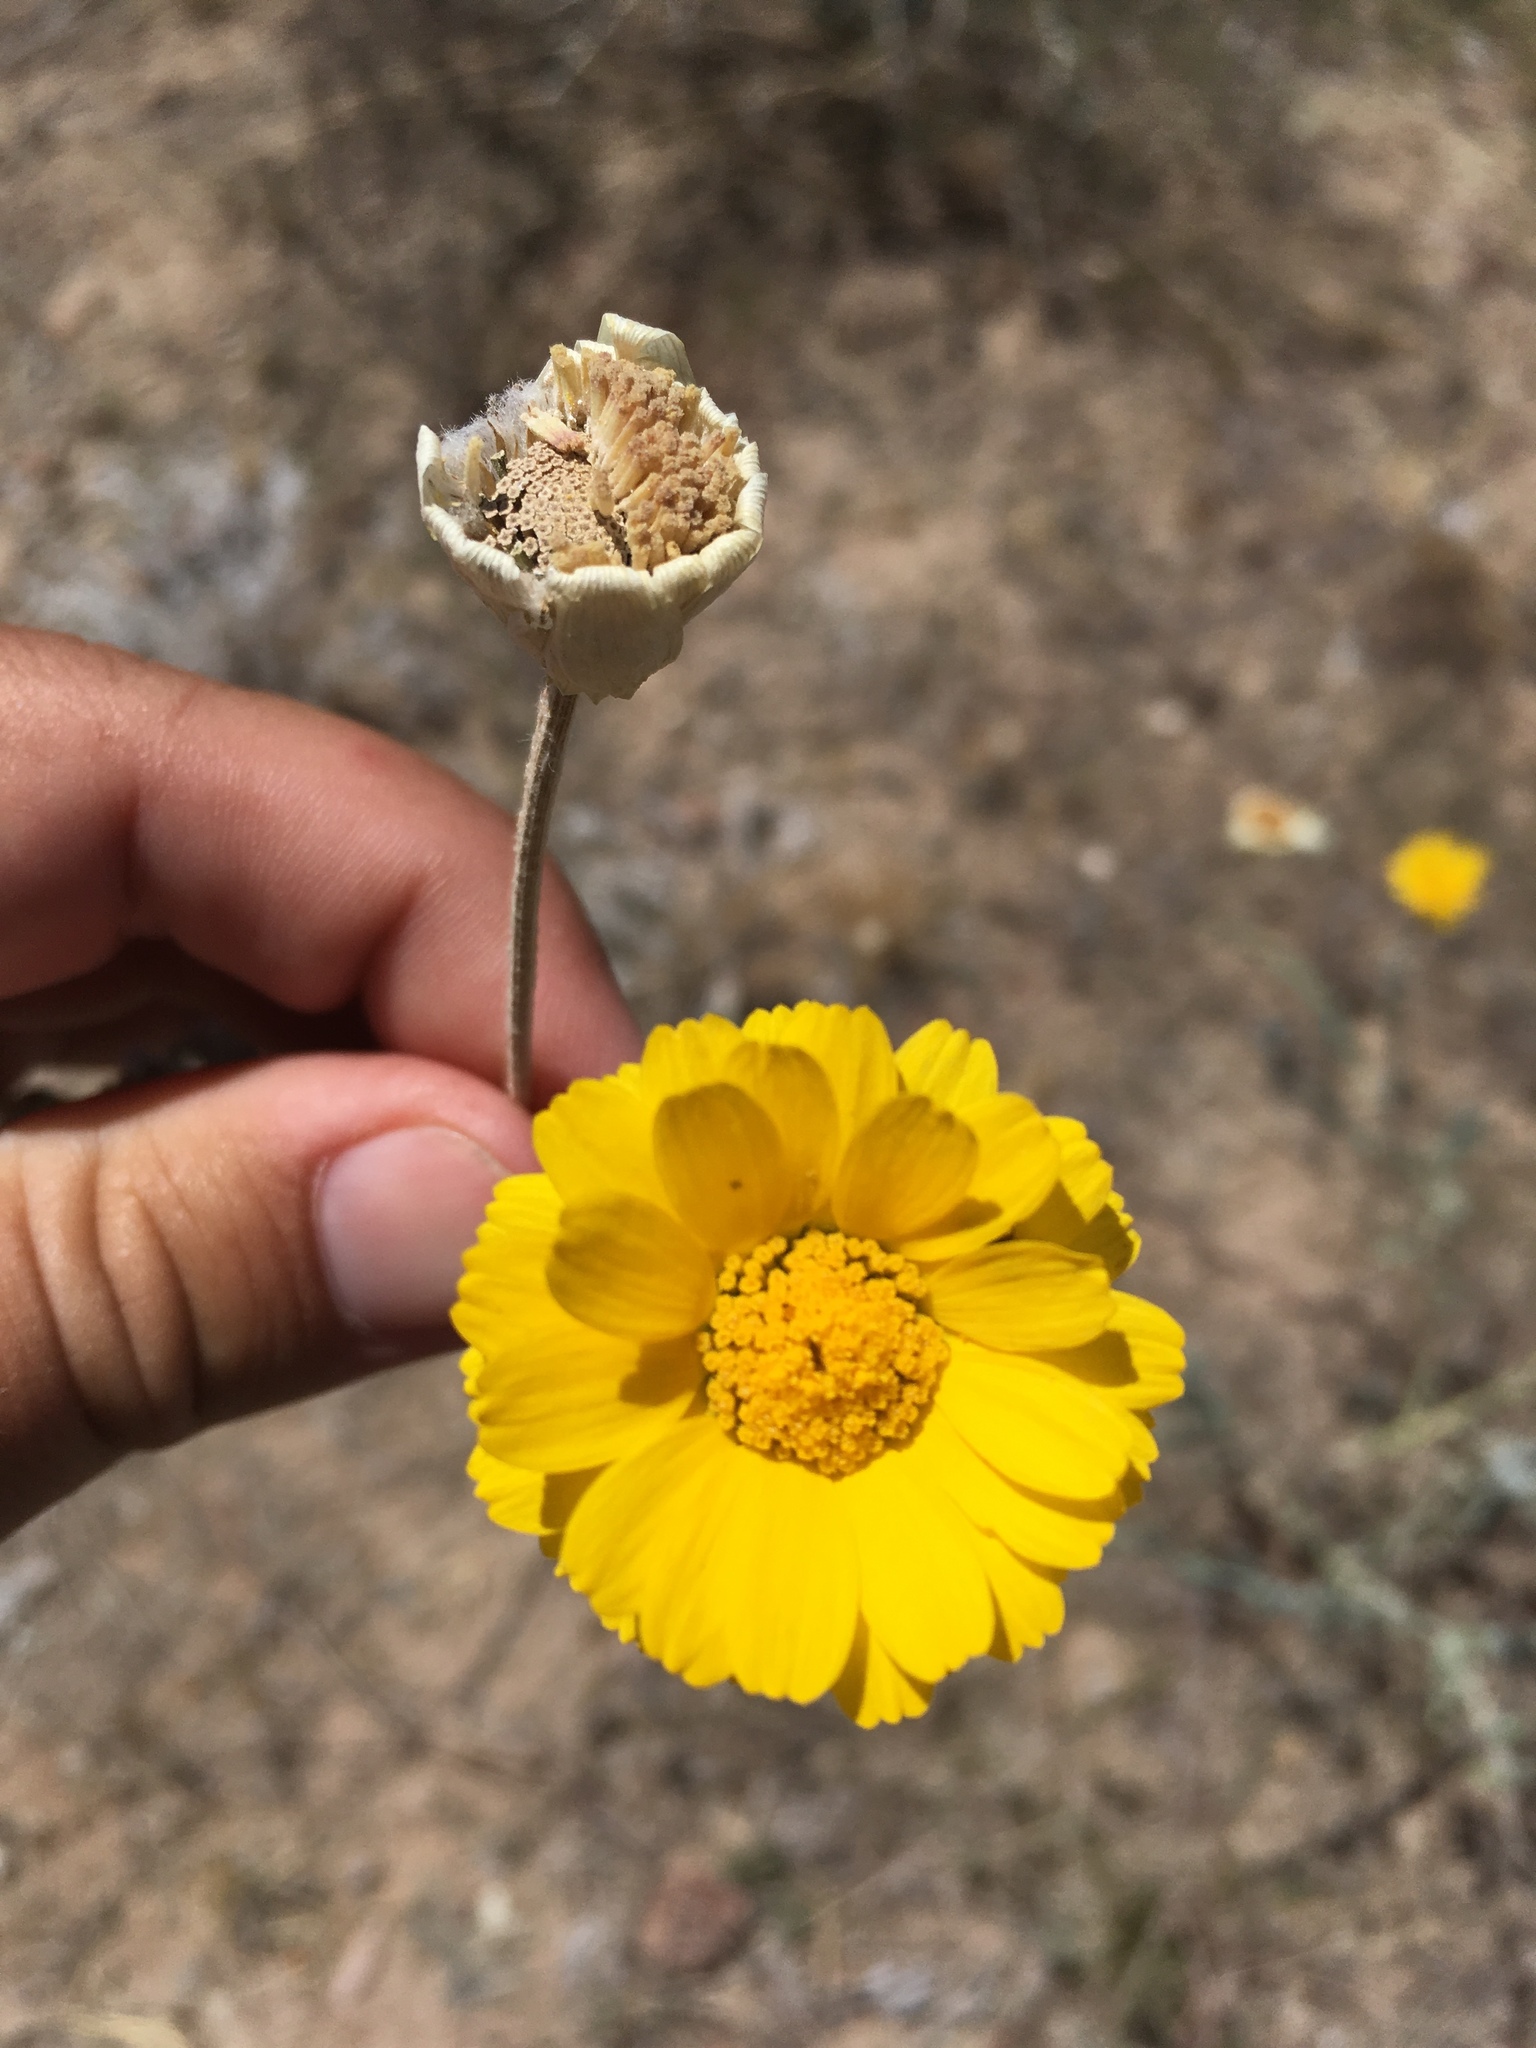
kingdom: Plantae
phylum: Tracheophyta
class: Magnoliopsida
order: Asterales
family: Asteraceae
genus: Baileya
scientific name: Baileya multiradiata
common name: Desert-marigold
